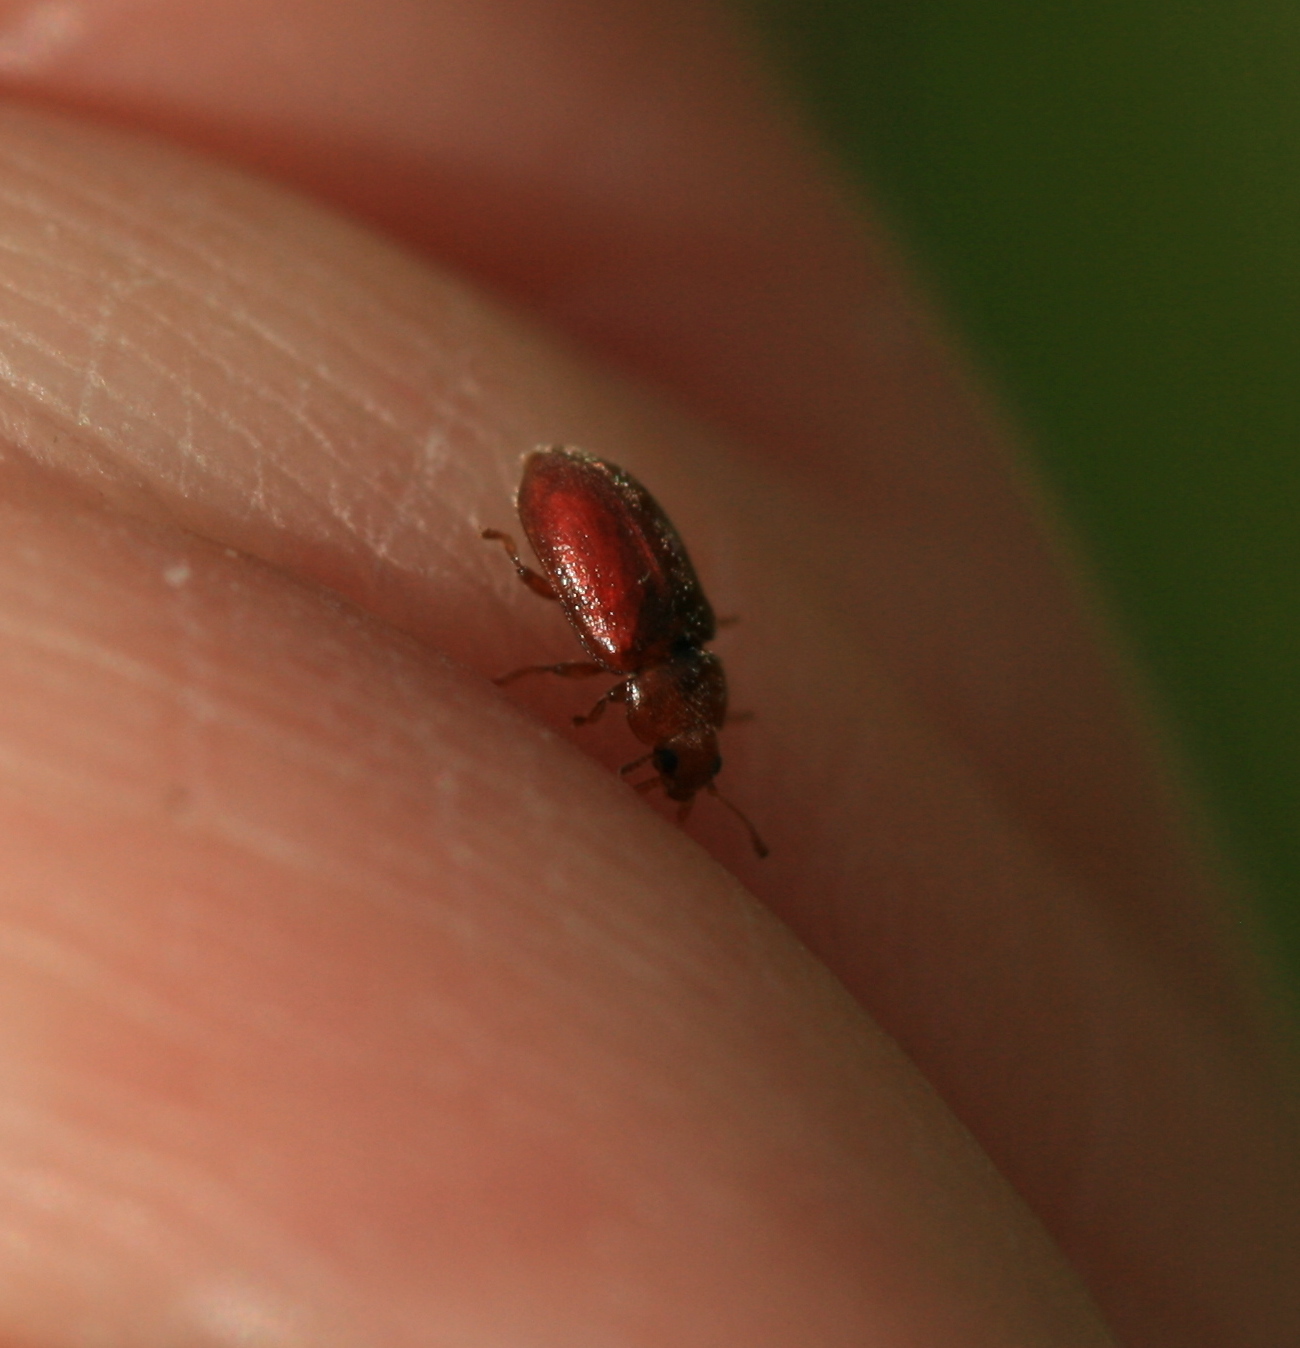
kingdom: Animalia
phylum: Arthropoda
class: Insecta
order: Coleoptera
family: Coccinellidae
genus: Coccidula
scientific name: Coccidula rufa
